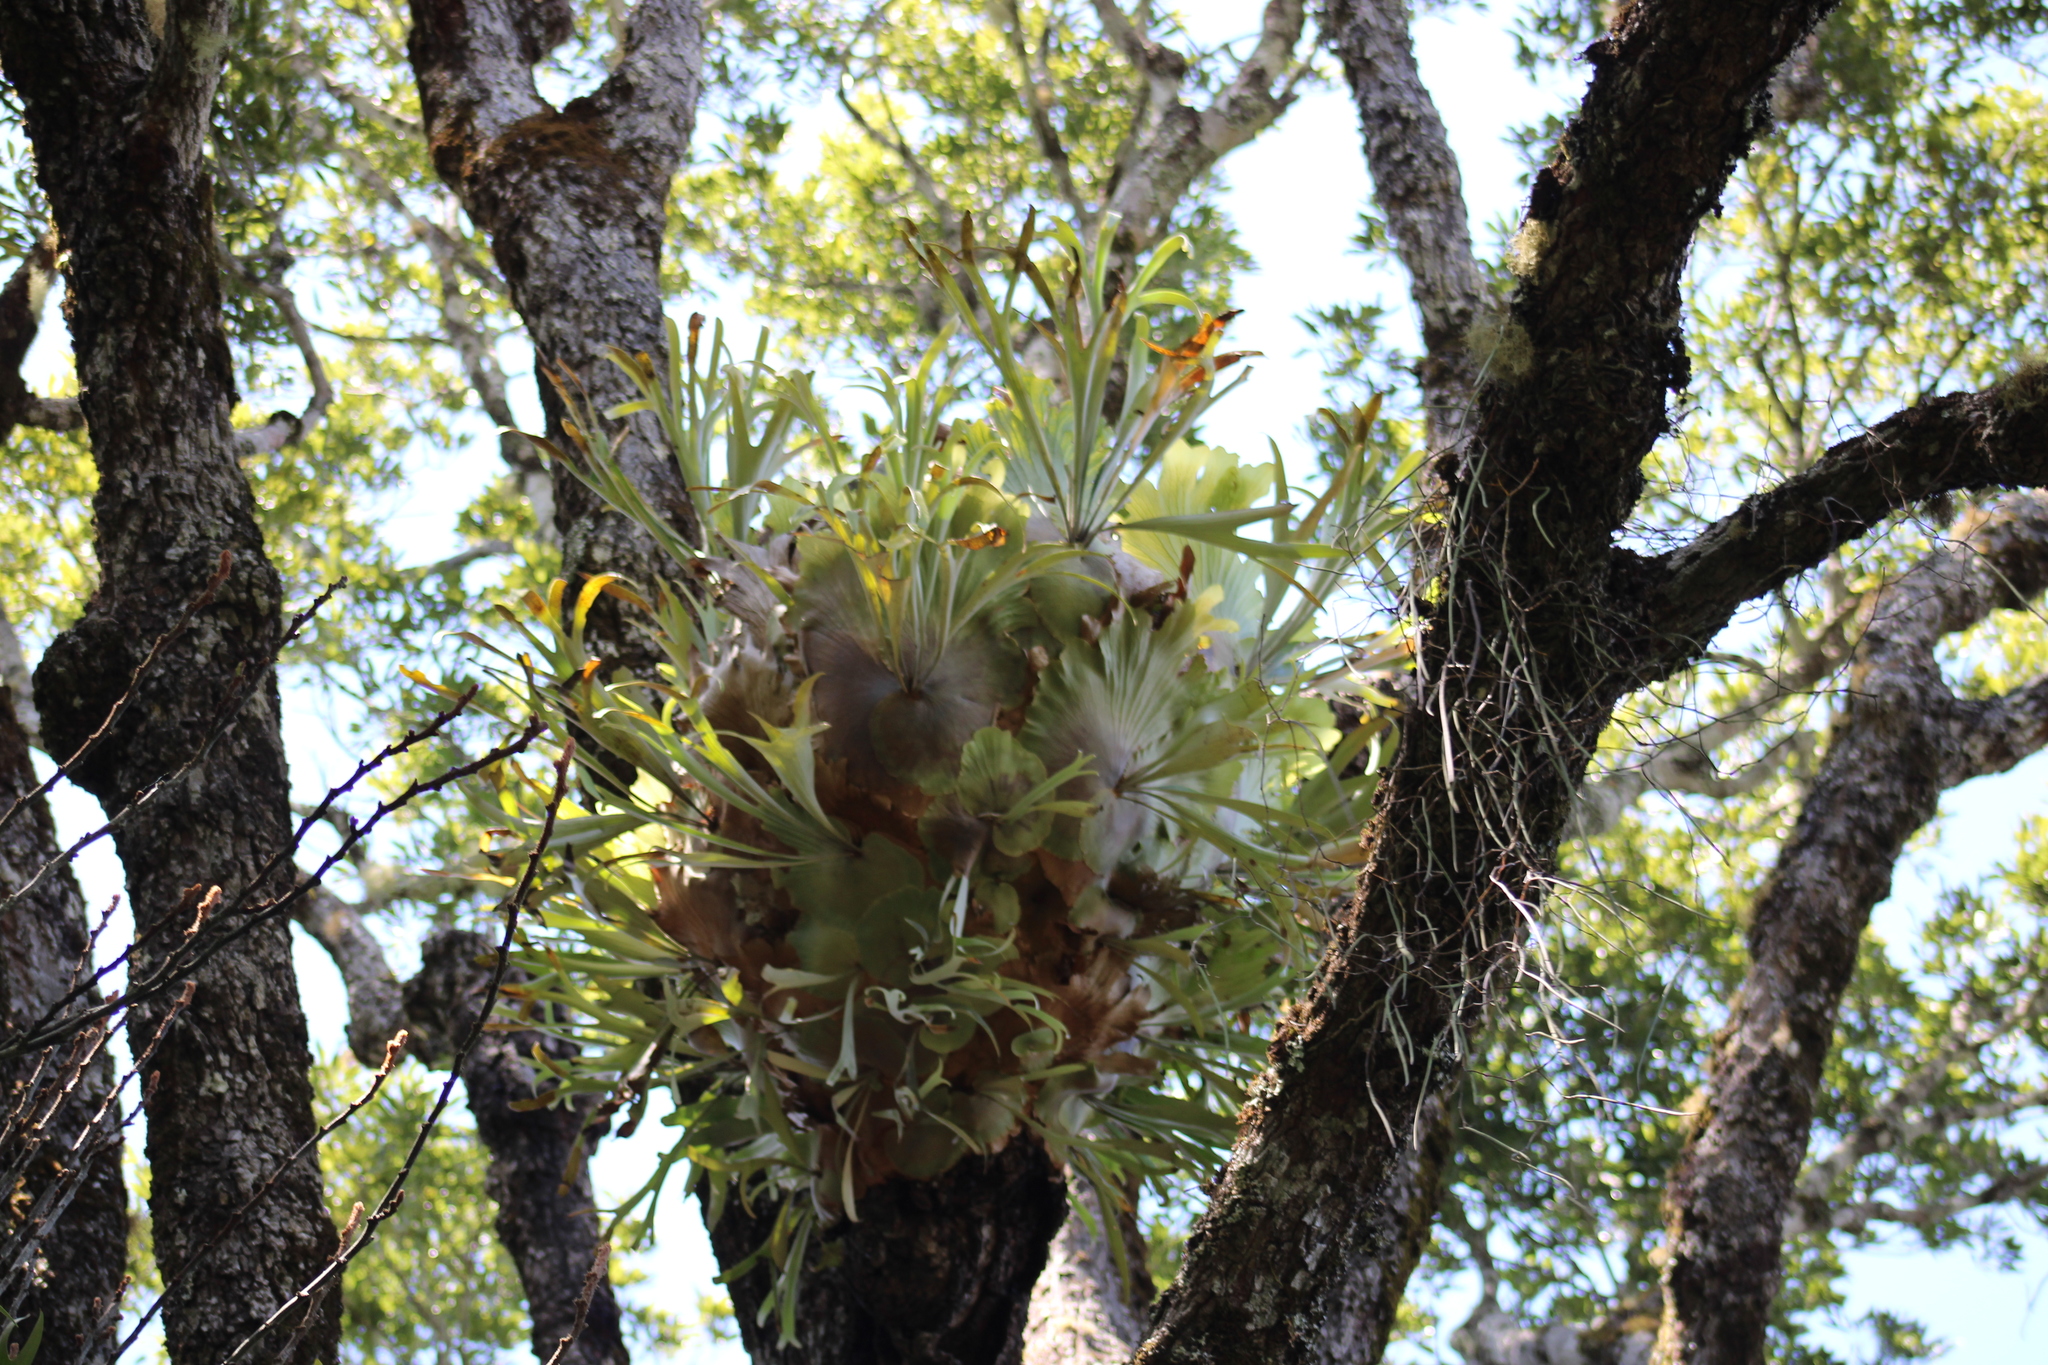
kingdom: Plantae
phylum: Tracheophyta
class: Polypodiopsida
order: Polypodiales
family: Polypodiaceae
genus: Platycerium
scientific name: Platycerium bifurcatum
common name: Elkhorn fern
